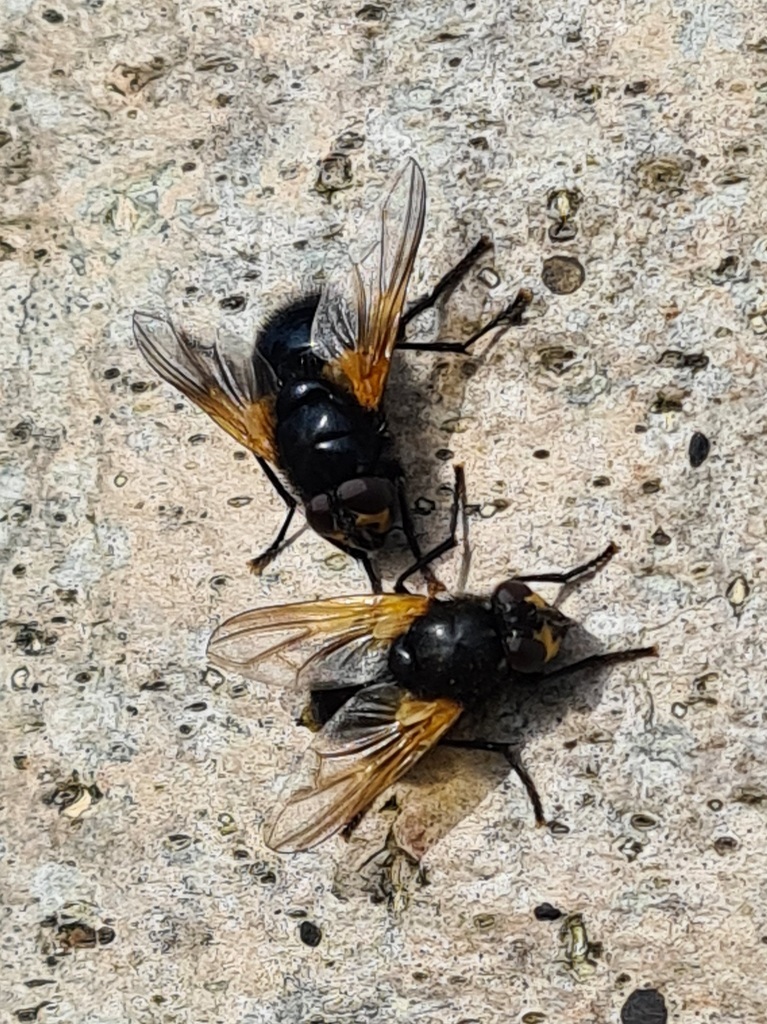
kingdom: Animalia
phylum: Arthropoda
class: Insecta
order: Diptera
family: Muscidae
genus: Mesembrina
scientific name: Mesembrina meridiana
